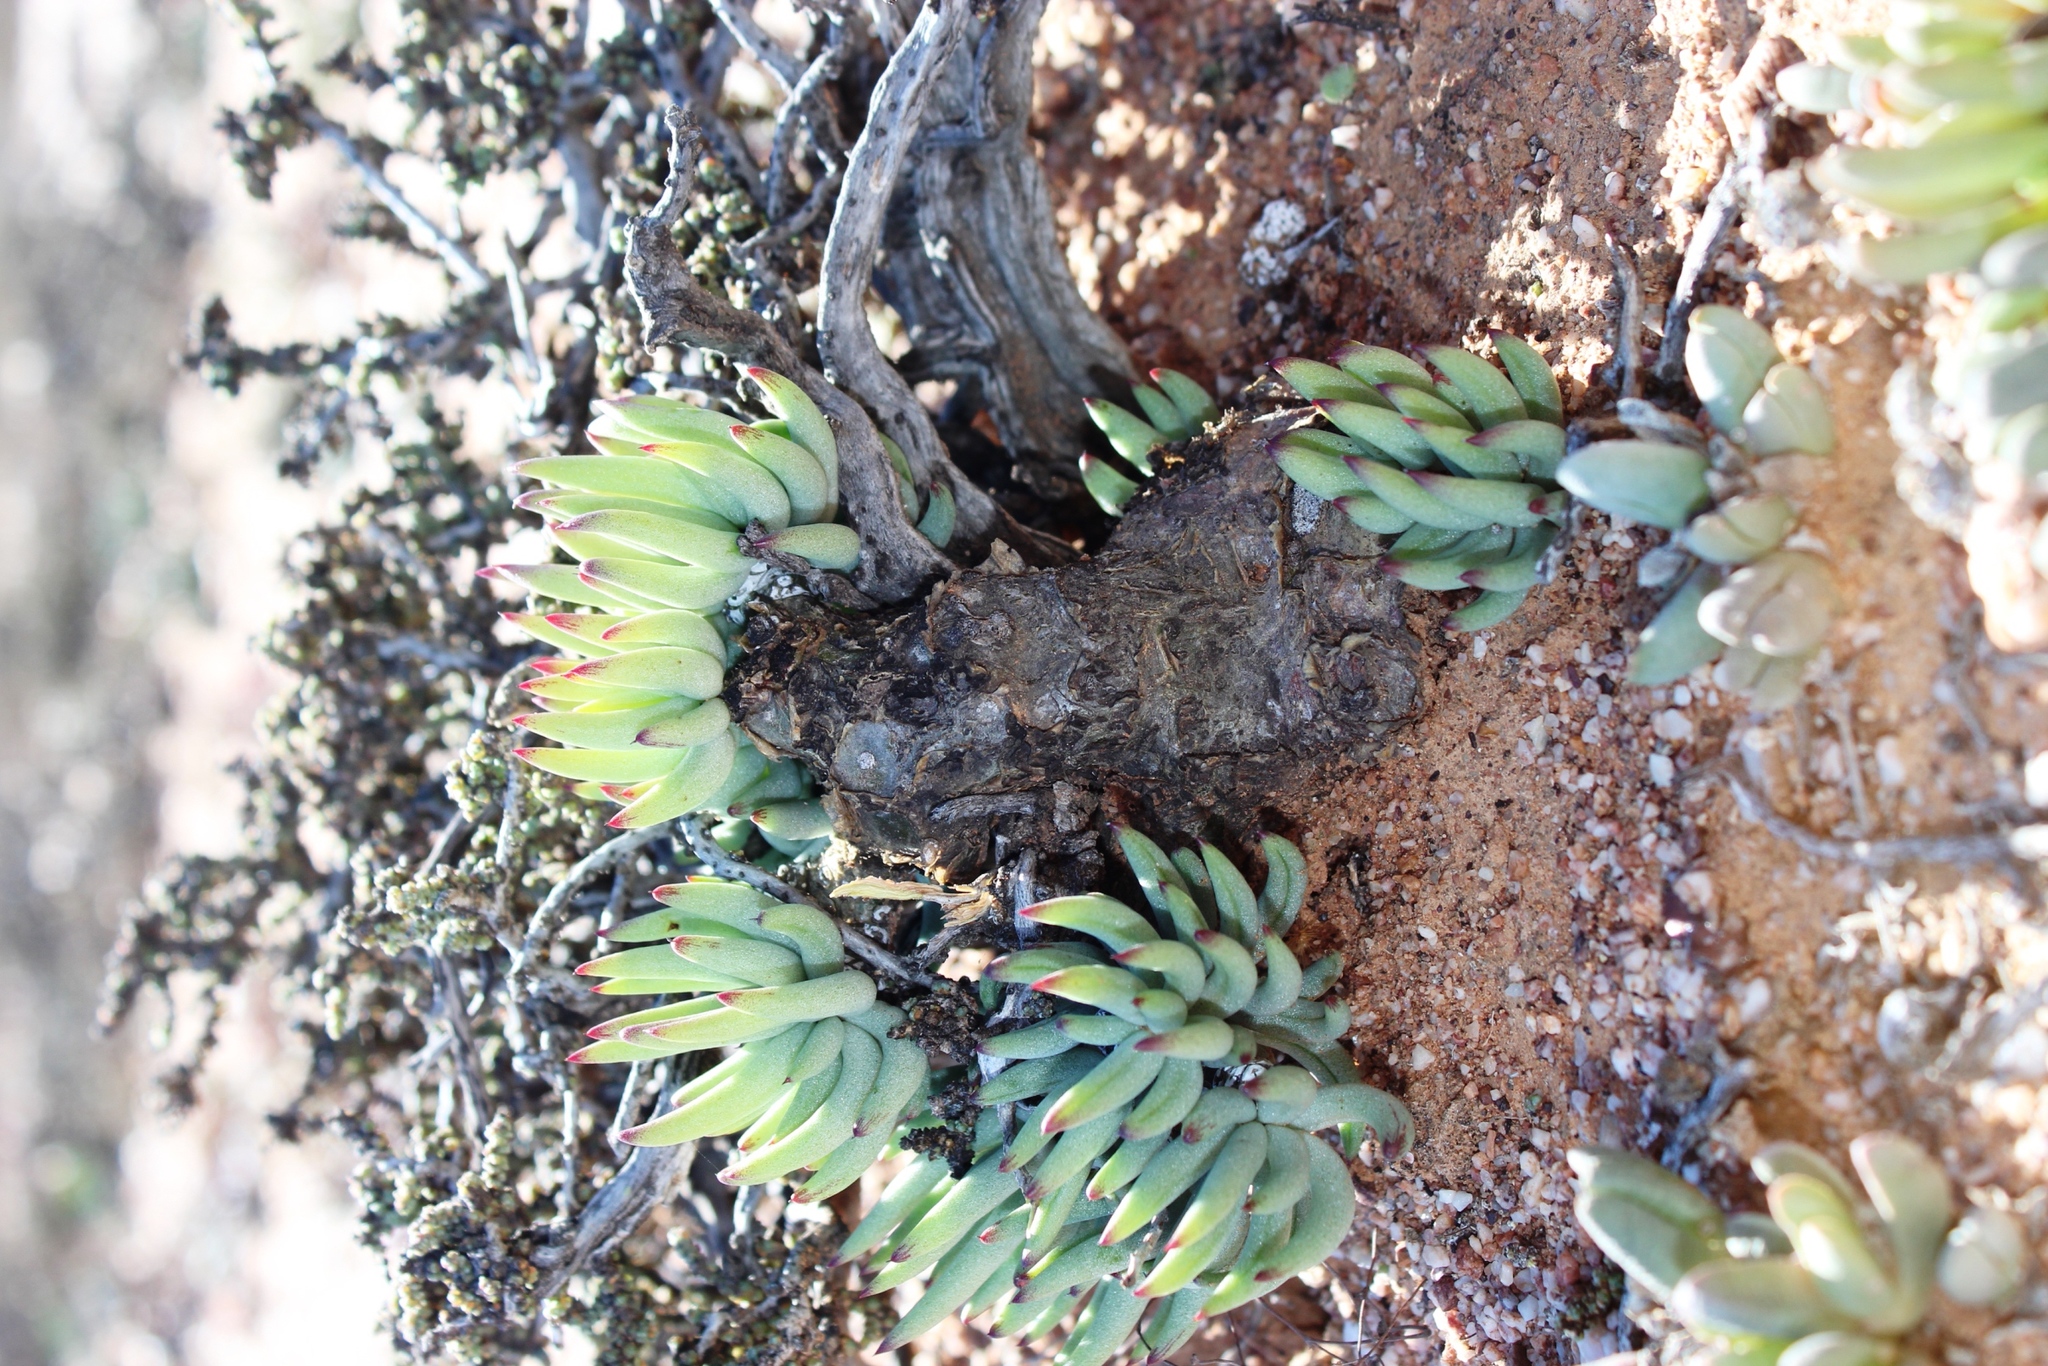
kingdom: Plantae
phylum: Tracheophyta
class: Magnoliopsida
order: Saxifragales
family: Crassulaceae
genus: Tylecodon
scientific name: Tylecodon pearsonii
